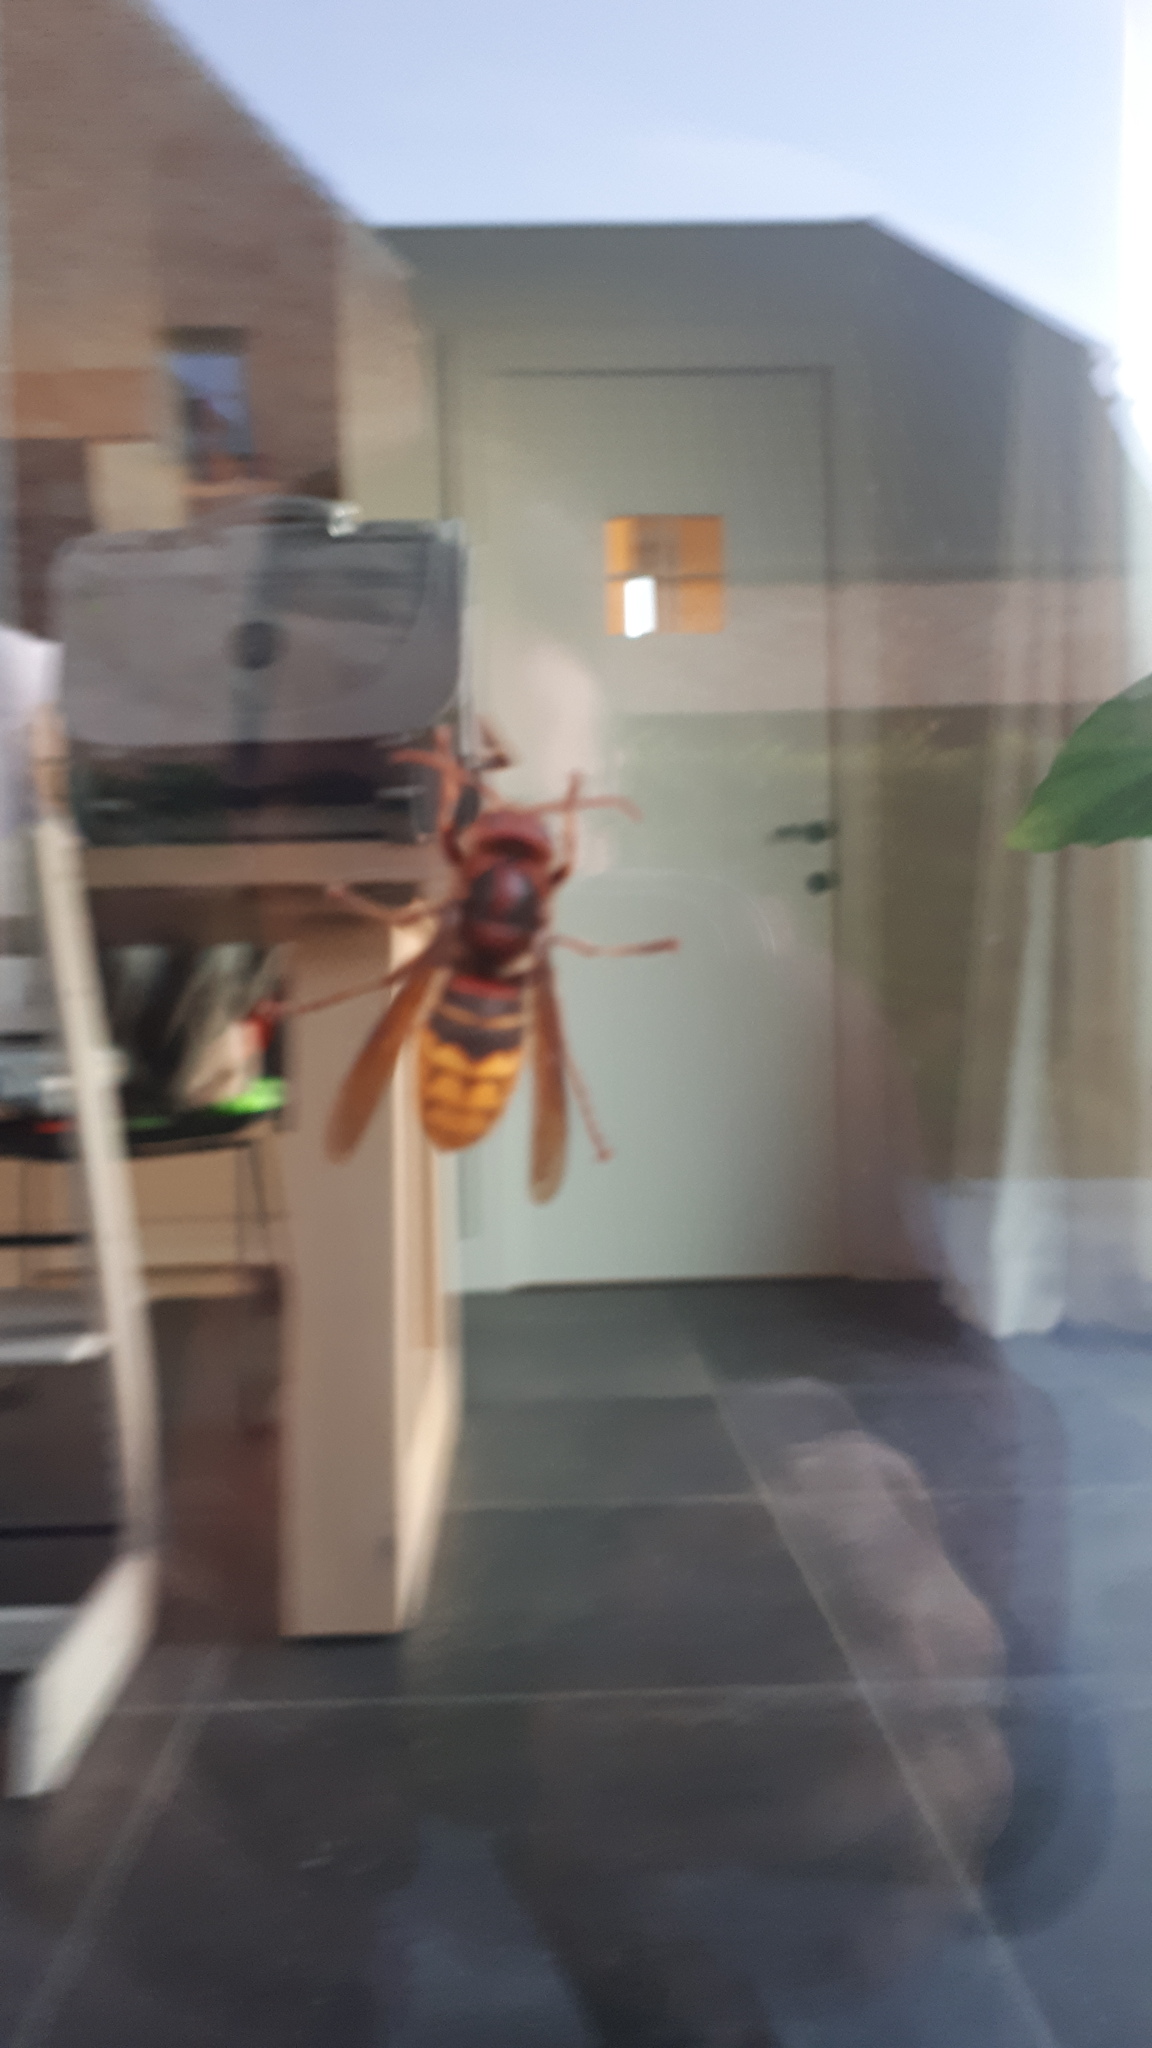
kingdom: Animalia
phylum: Arthropoda
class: Insecta
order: Hymenoptera
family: Vespidae
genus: Vespa
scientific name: Vespa crabro
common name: Hornet
